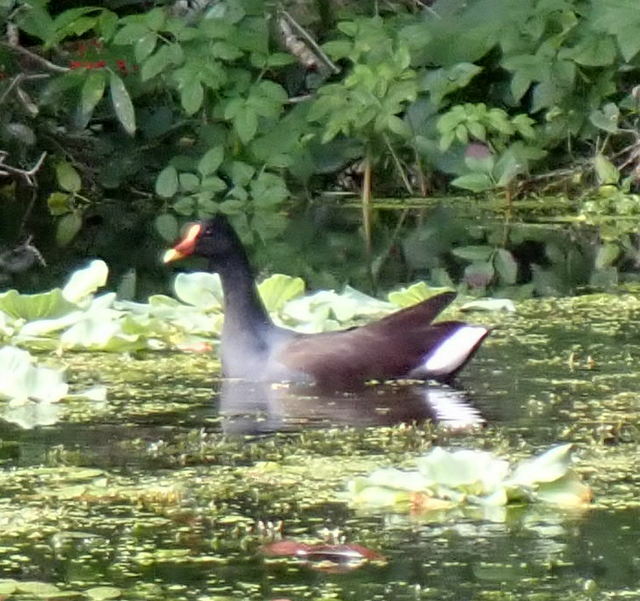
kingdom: Animalia
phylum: Chordata
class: Aves
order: Gruiformes
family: Rallidae
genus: Gallinula
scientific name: Gallinula chloropus
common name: Common moorhen
